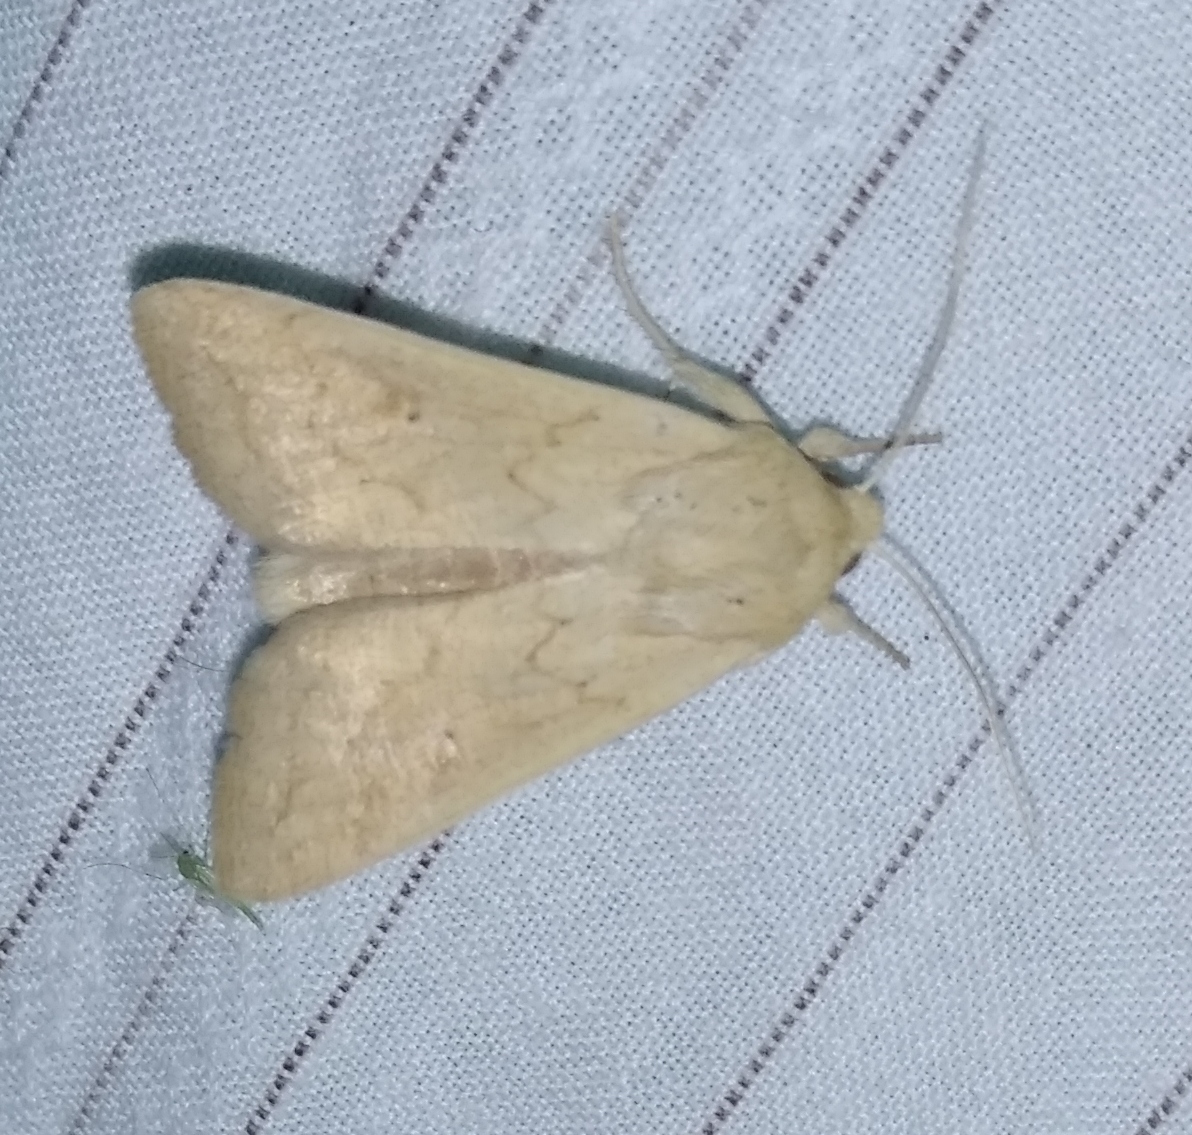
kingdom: Animalia
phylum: Arthropoda
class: Insecta
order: Lepidoptera
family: Noctuidae
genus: Mythimna
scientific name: Mythimna vitellina
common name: Delicate
